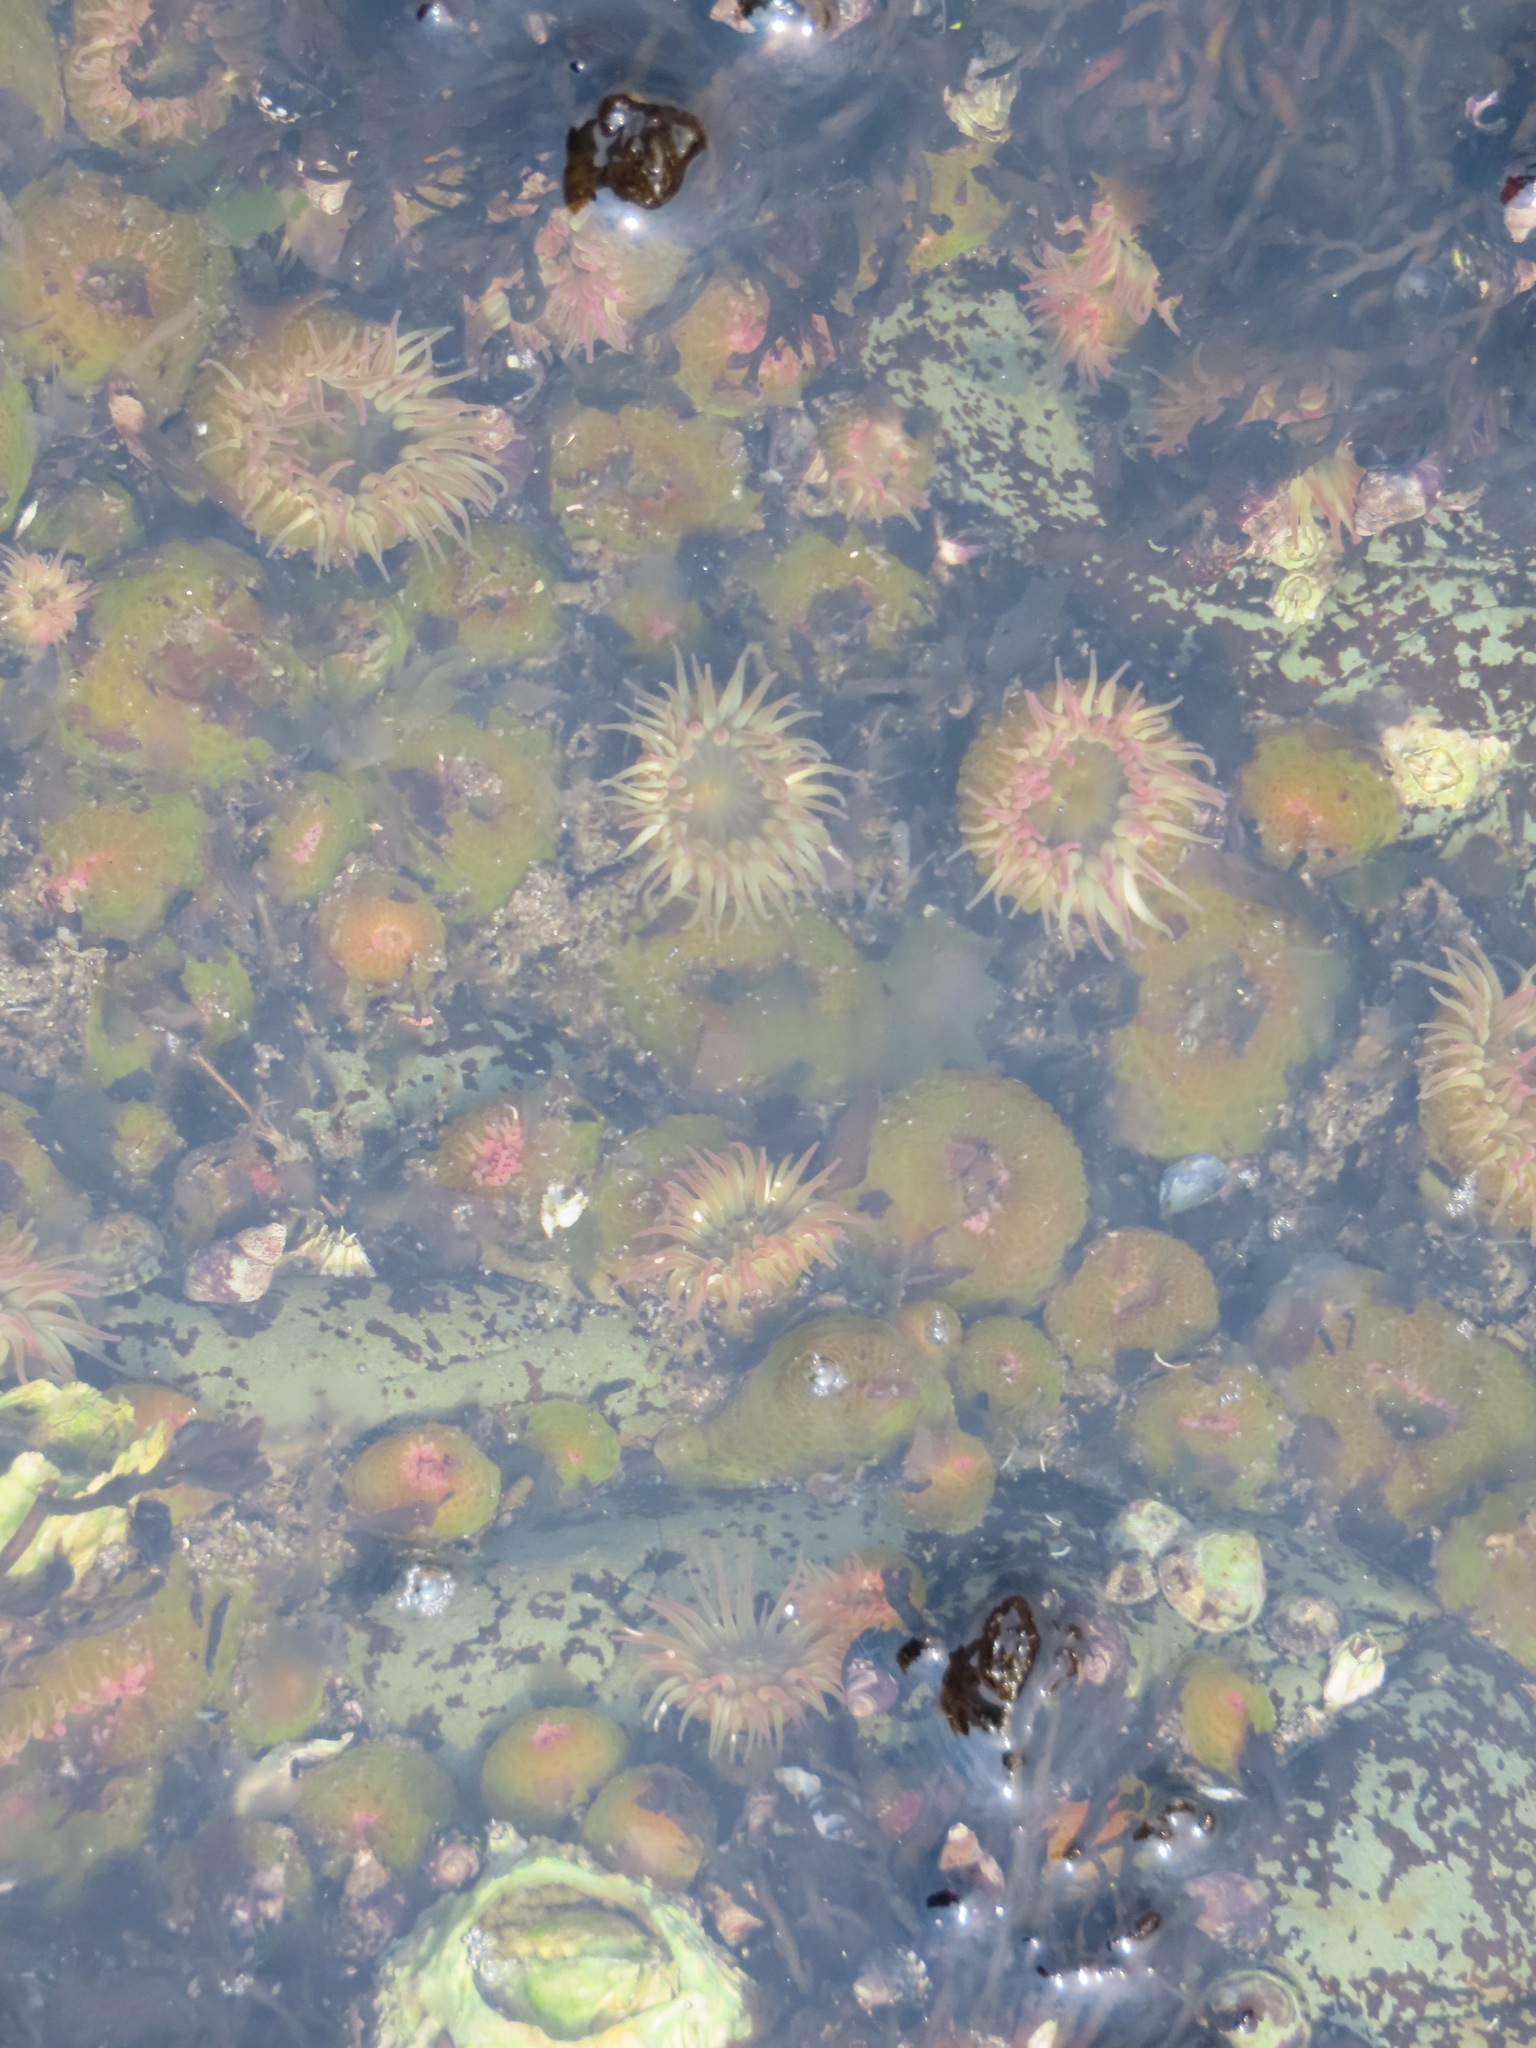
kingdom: Animalia
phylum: Cnidaria
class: Anthozoa
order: Actiniaria
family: Actiniidae
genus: Anthopleura
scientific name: Anthopleura elegantissima
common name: Clonal anemone
